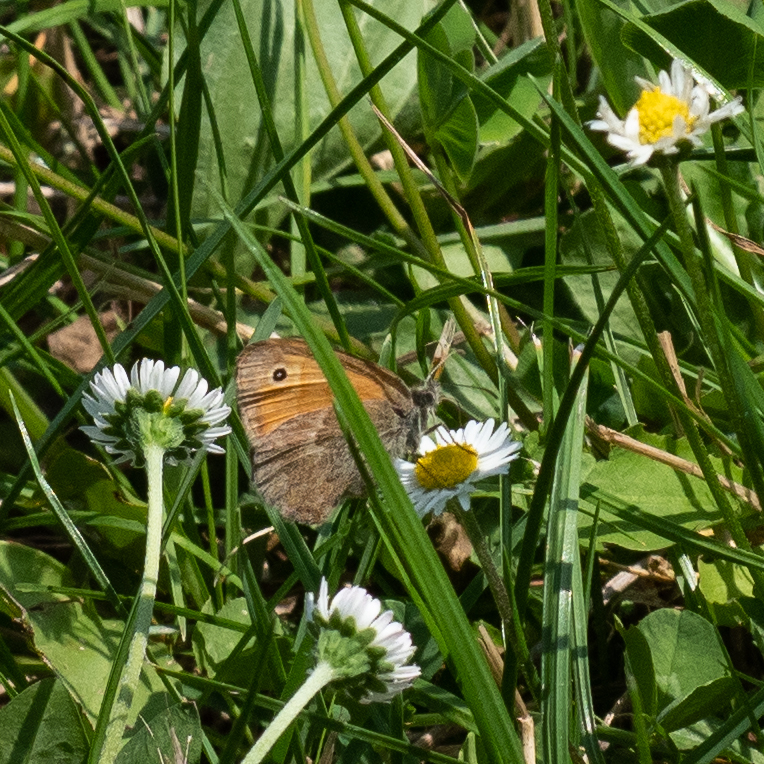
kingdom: Animalia
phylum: Arthropoda
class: Insecta
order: Lepidoptera
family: Nymphalidae
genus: Coenonympha
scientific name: Coenonympha pamphilus
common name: Small heath
